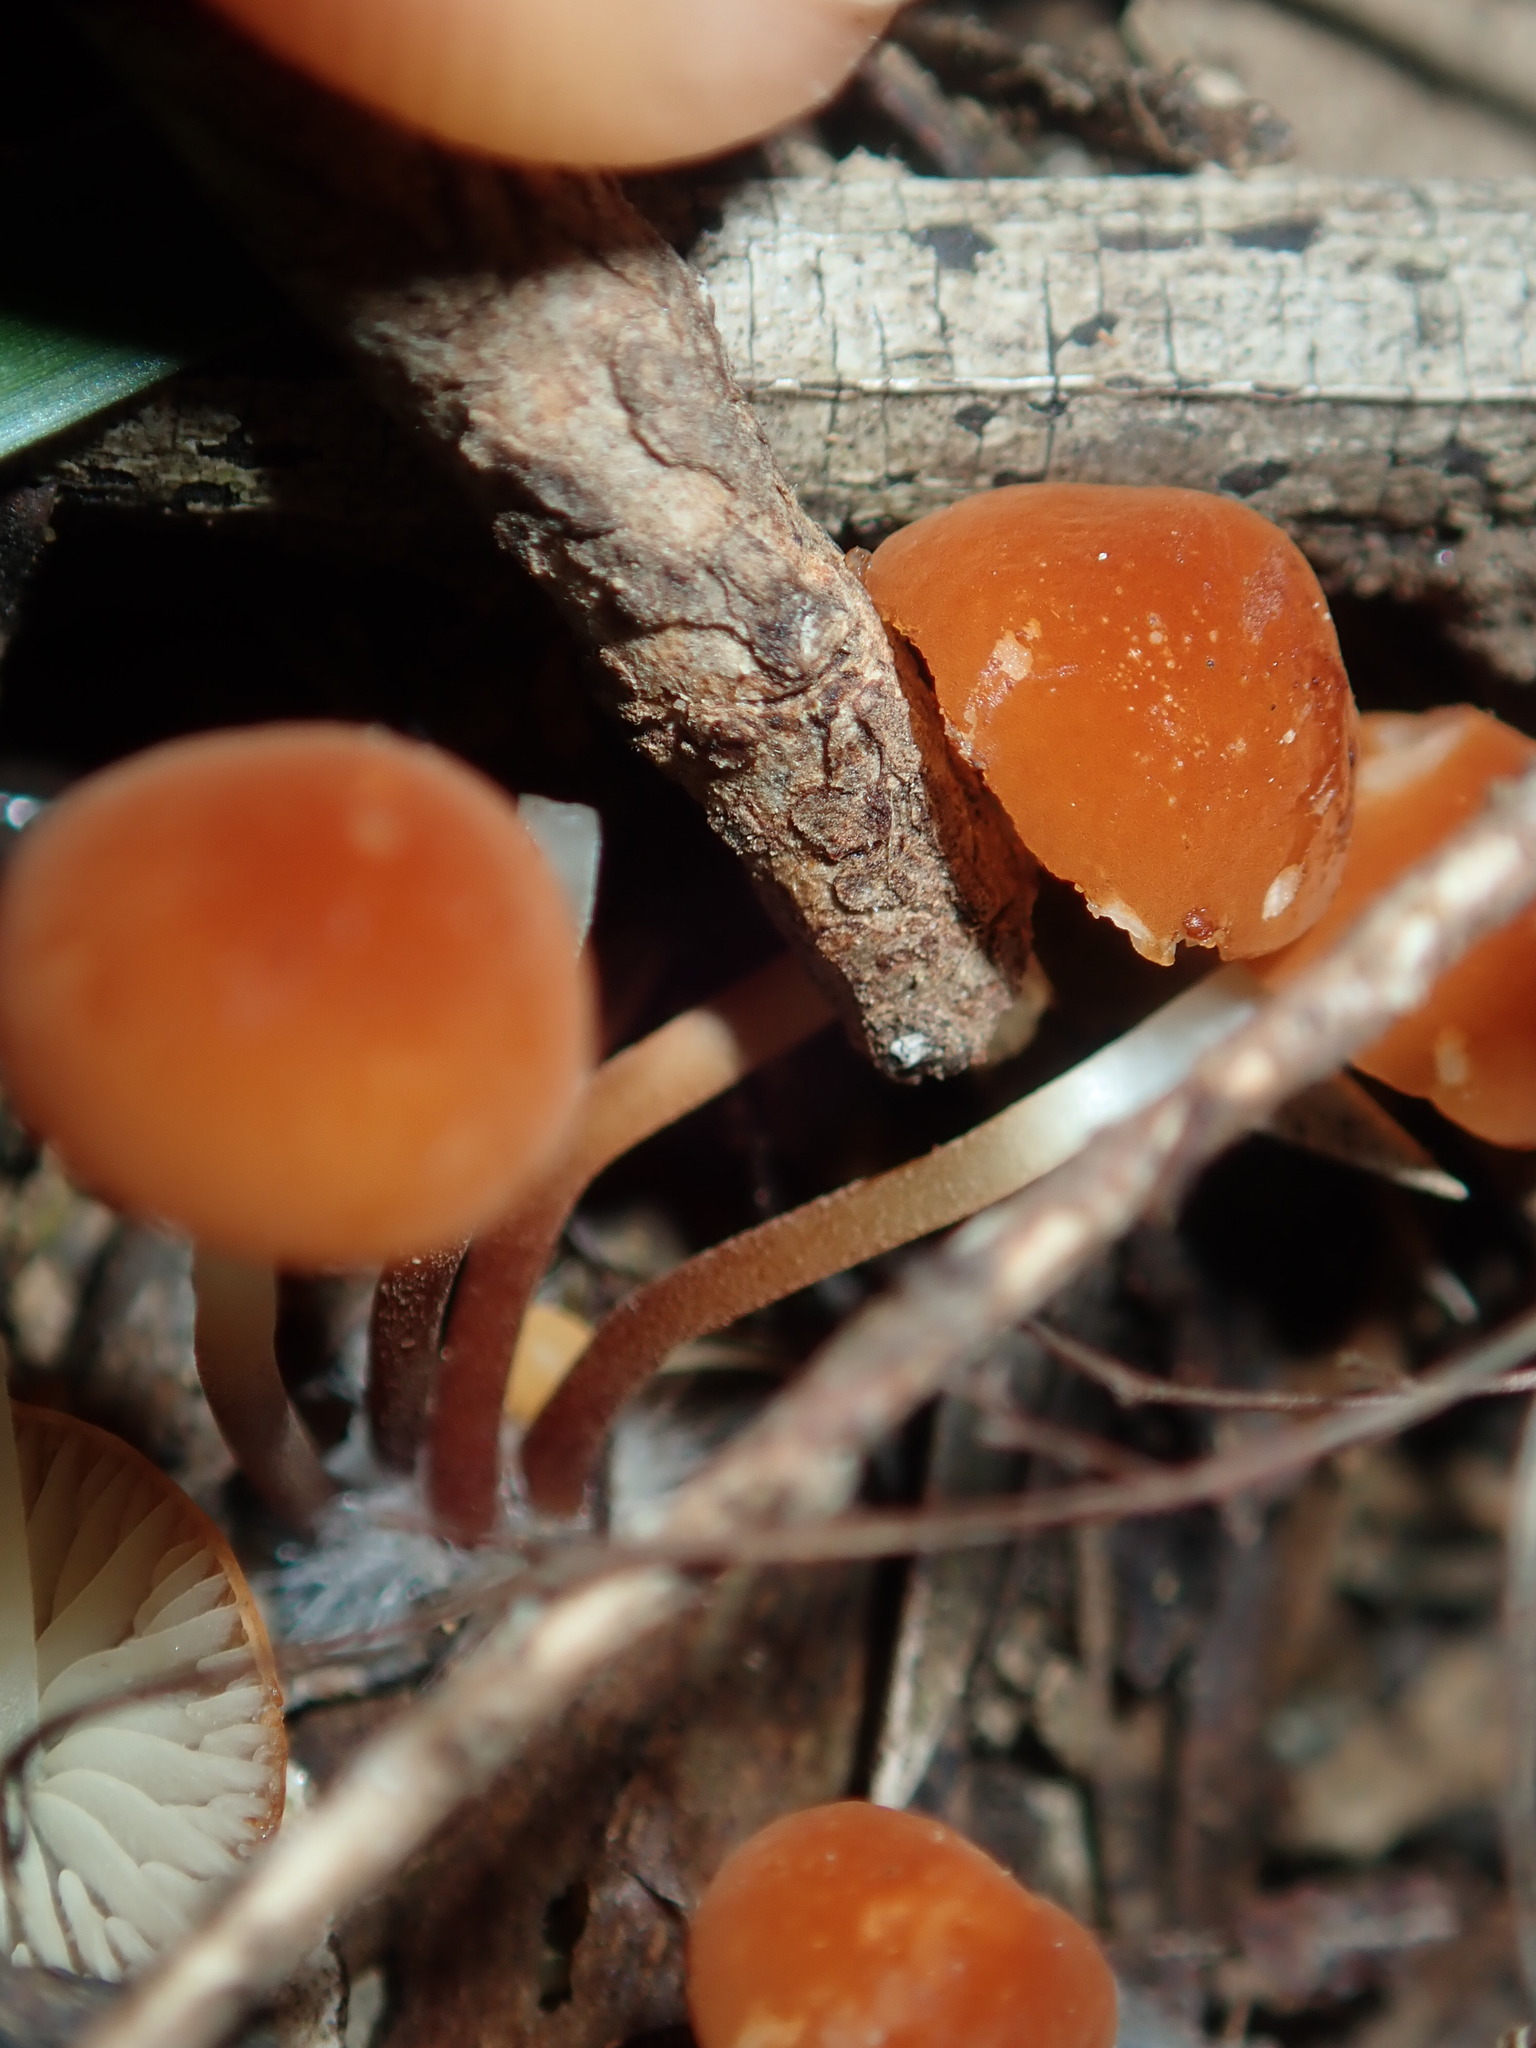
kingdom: Fungi
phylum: Basidiomycota
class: Agaricomycetes
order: Agaricales
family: Marasmiaceae
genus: Marasmius
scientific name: Marasmius elegans
